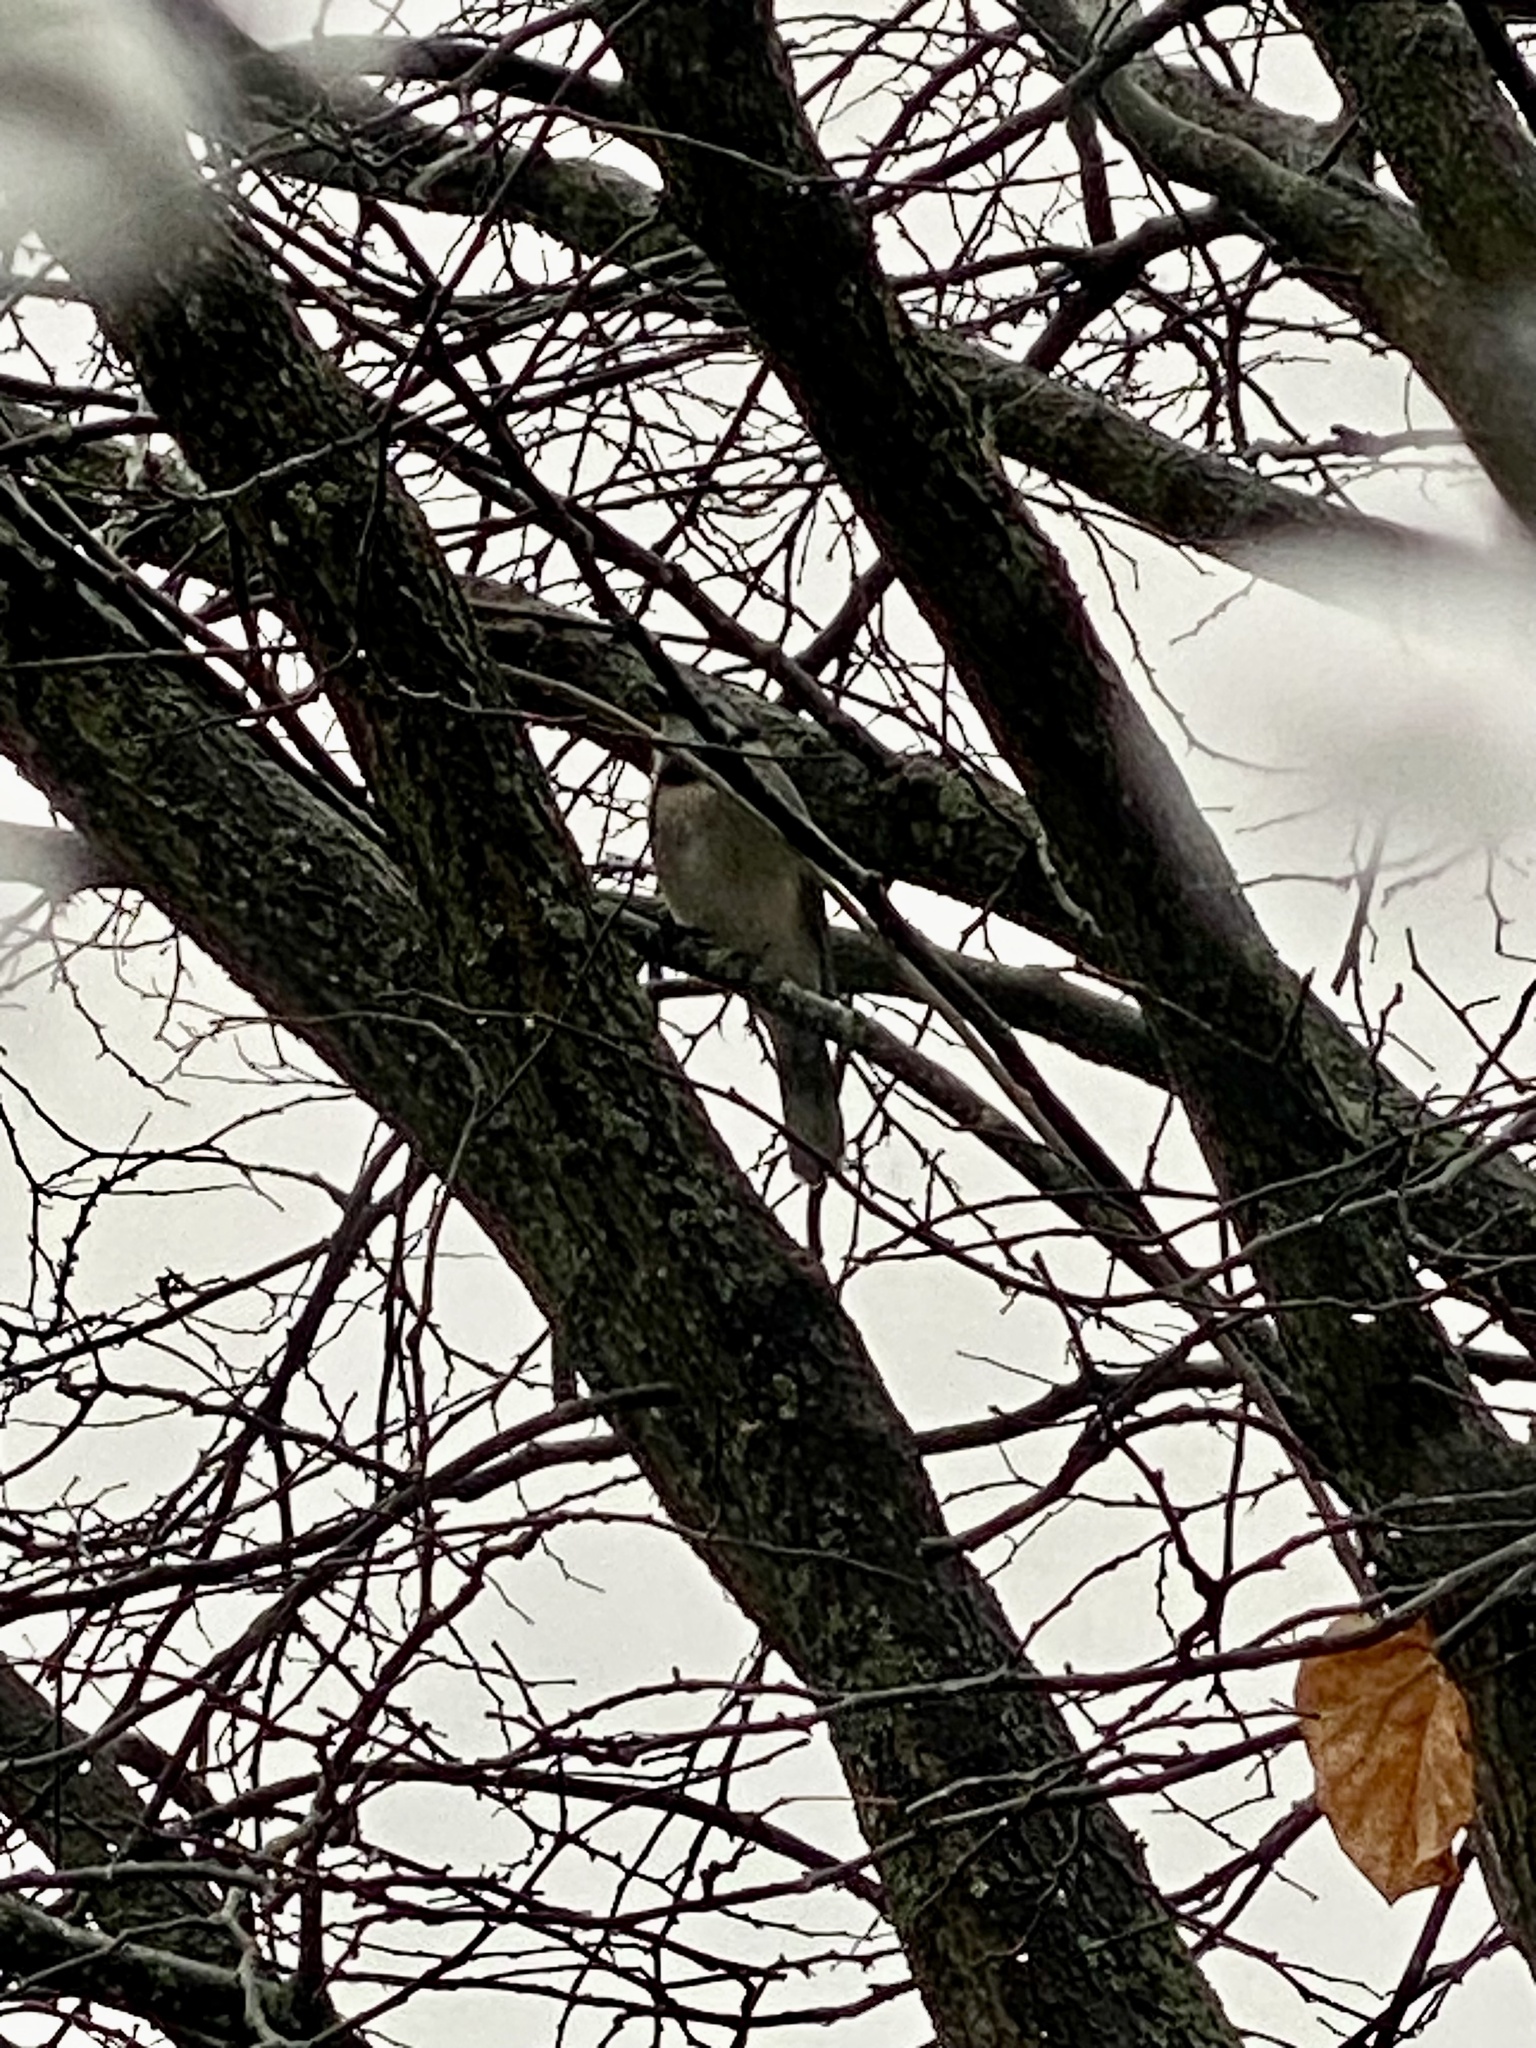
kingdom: Animalia
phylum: Chordata
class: Aves
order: Passeriformes
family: Corvidae
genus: Cyanocitta
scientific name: Cyanocitta cristata
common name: Blue jay
